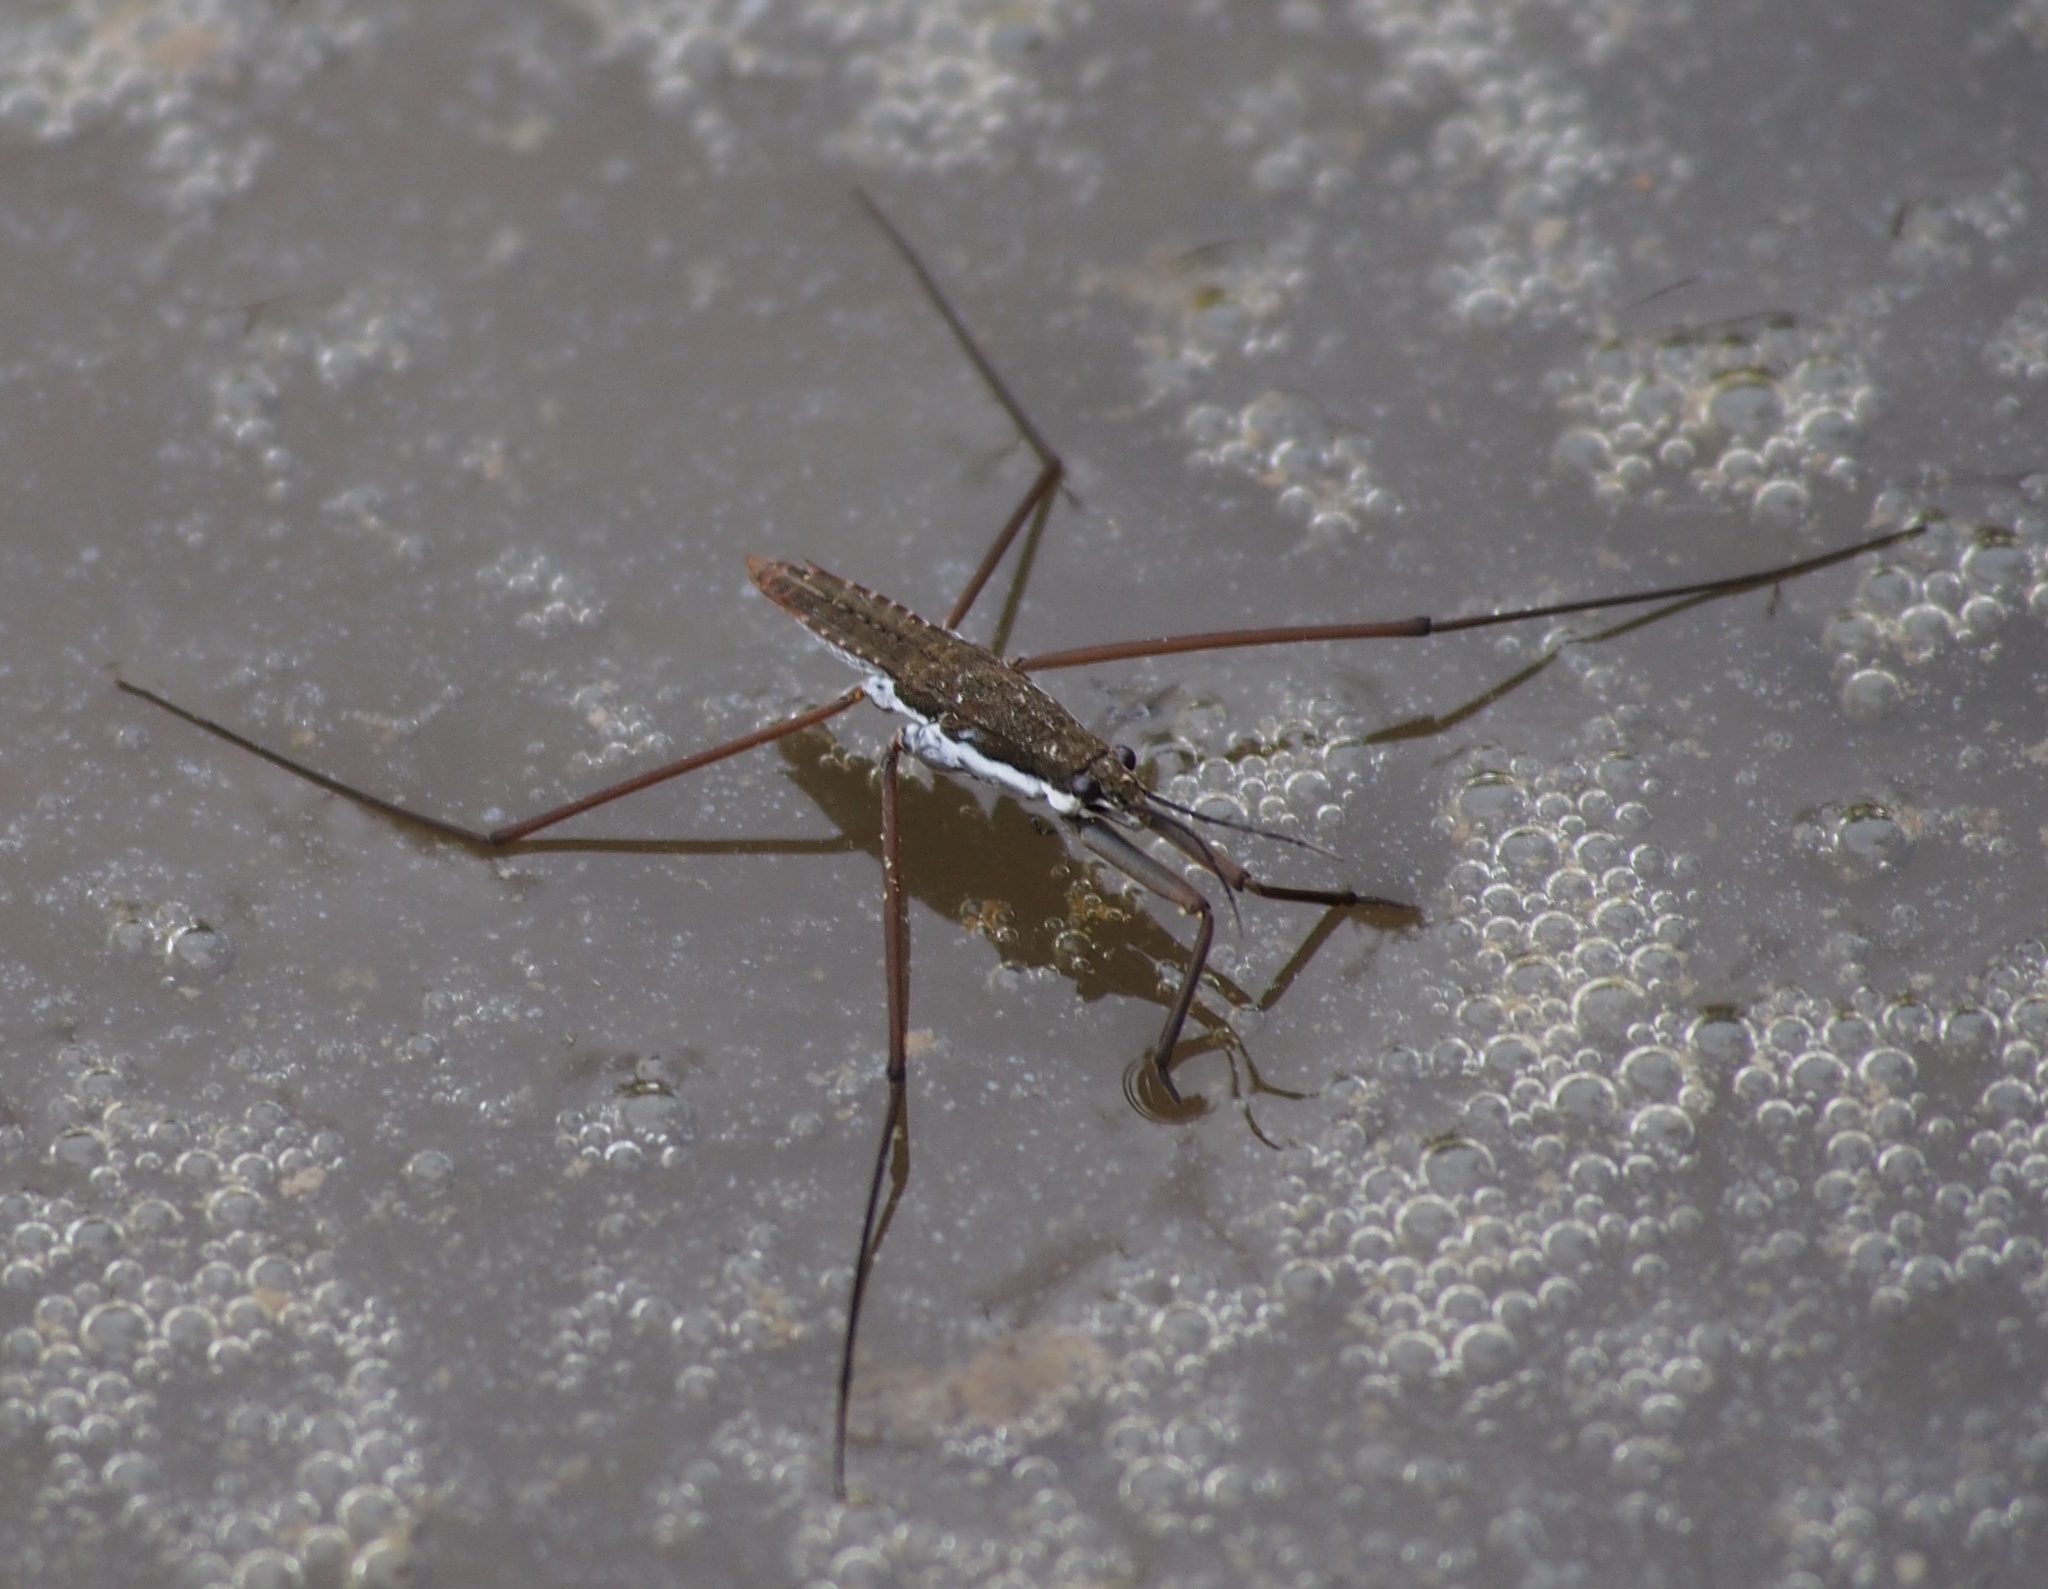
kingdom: Animalia
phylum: Arthropoda
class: Insecta
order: Hemiptera
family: Gerridae
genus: Aquarius
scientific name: Aquarius remigis
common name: Common water strider
